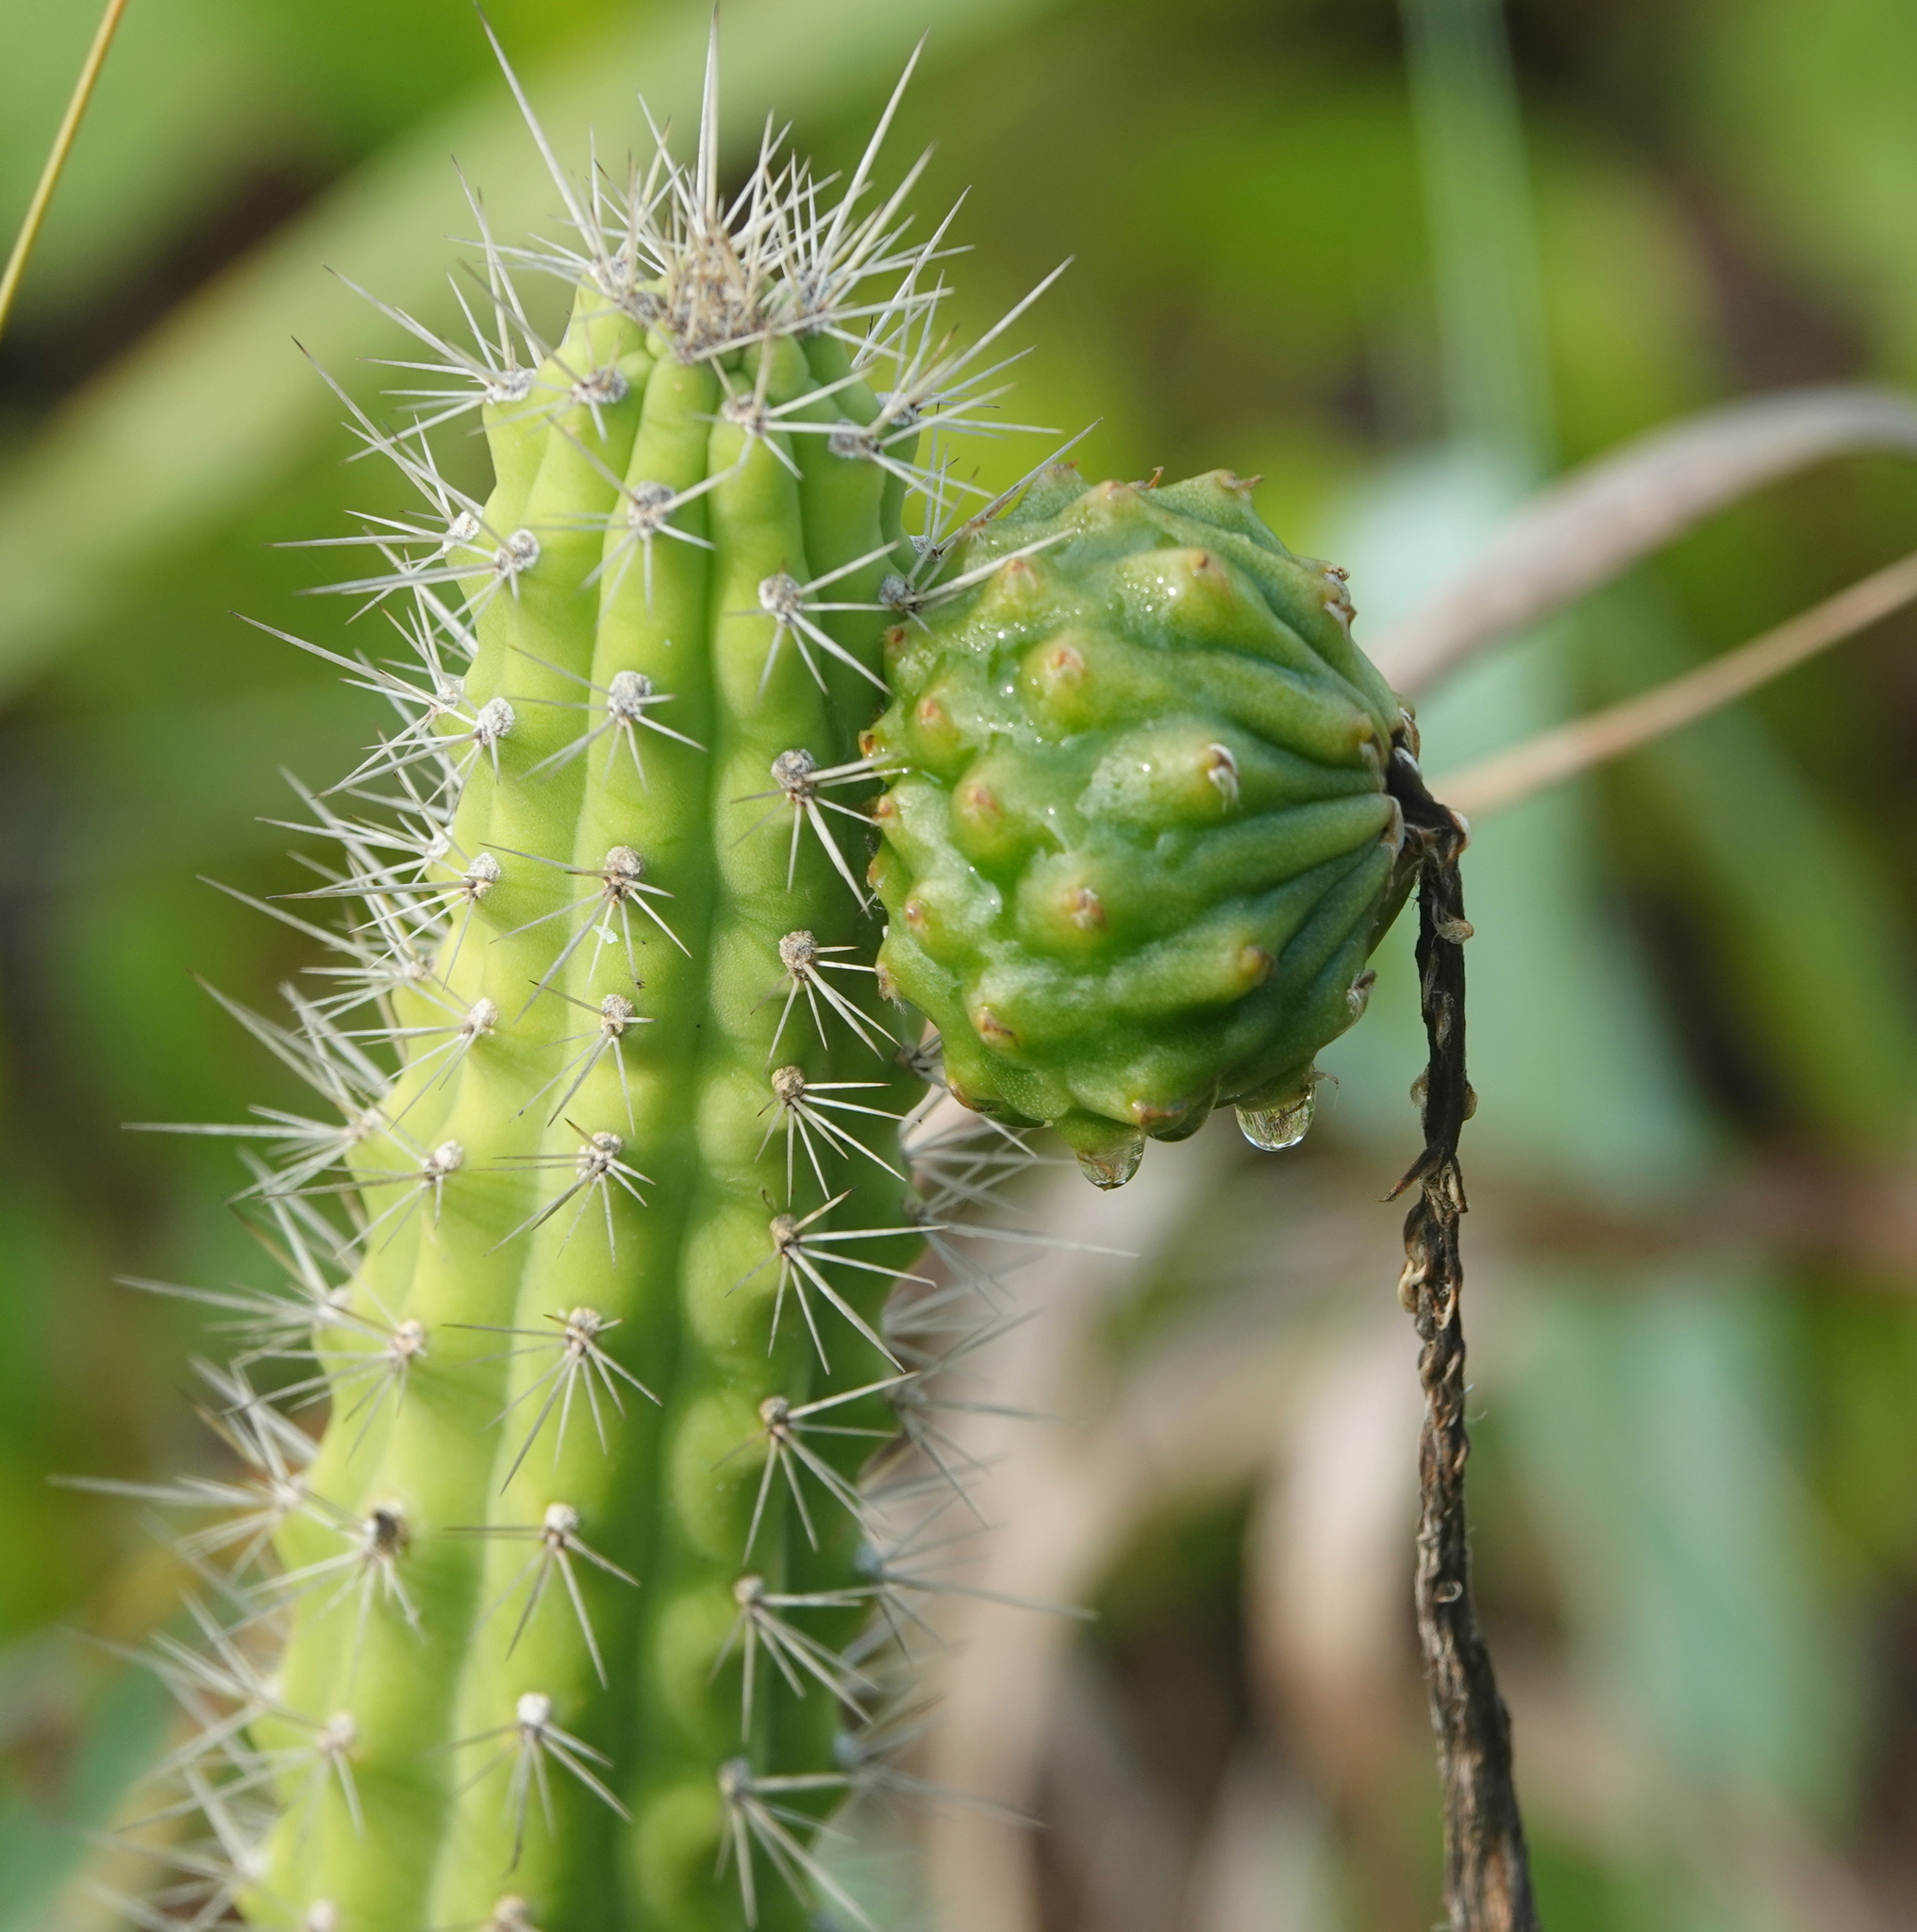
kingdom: Plantae
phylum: Tracheophyta
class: Magnoliopsida
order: Caryophyllales
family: Cactaceae
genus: Harrisia
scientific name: Harrisia aboriginum
